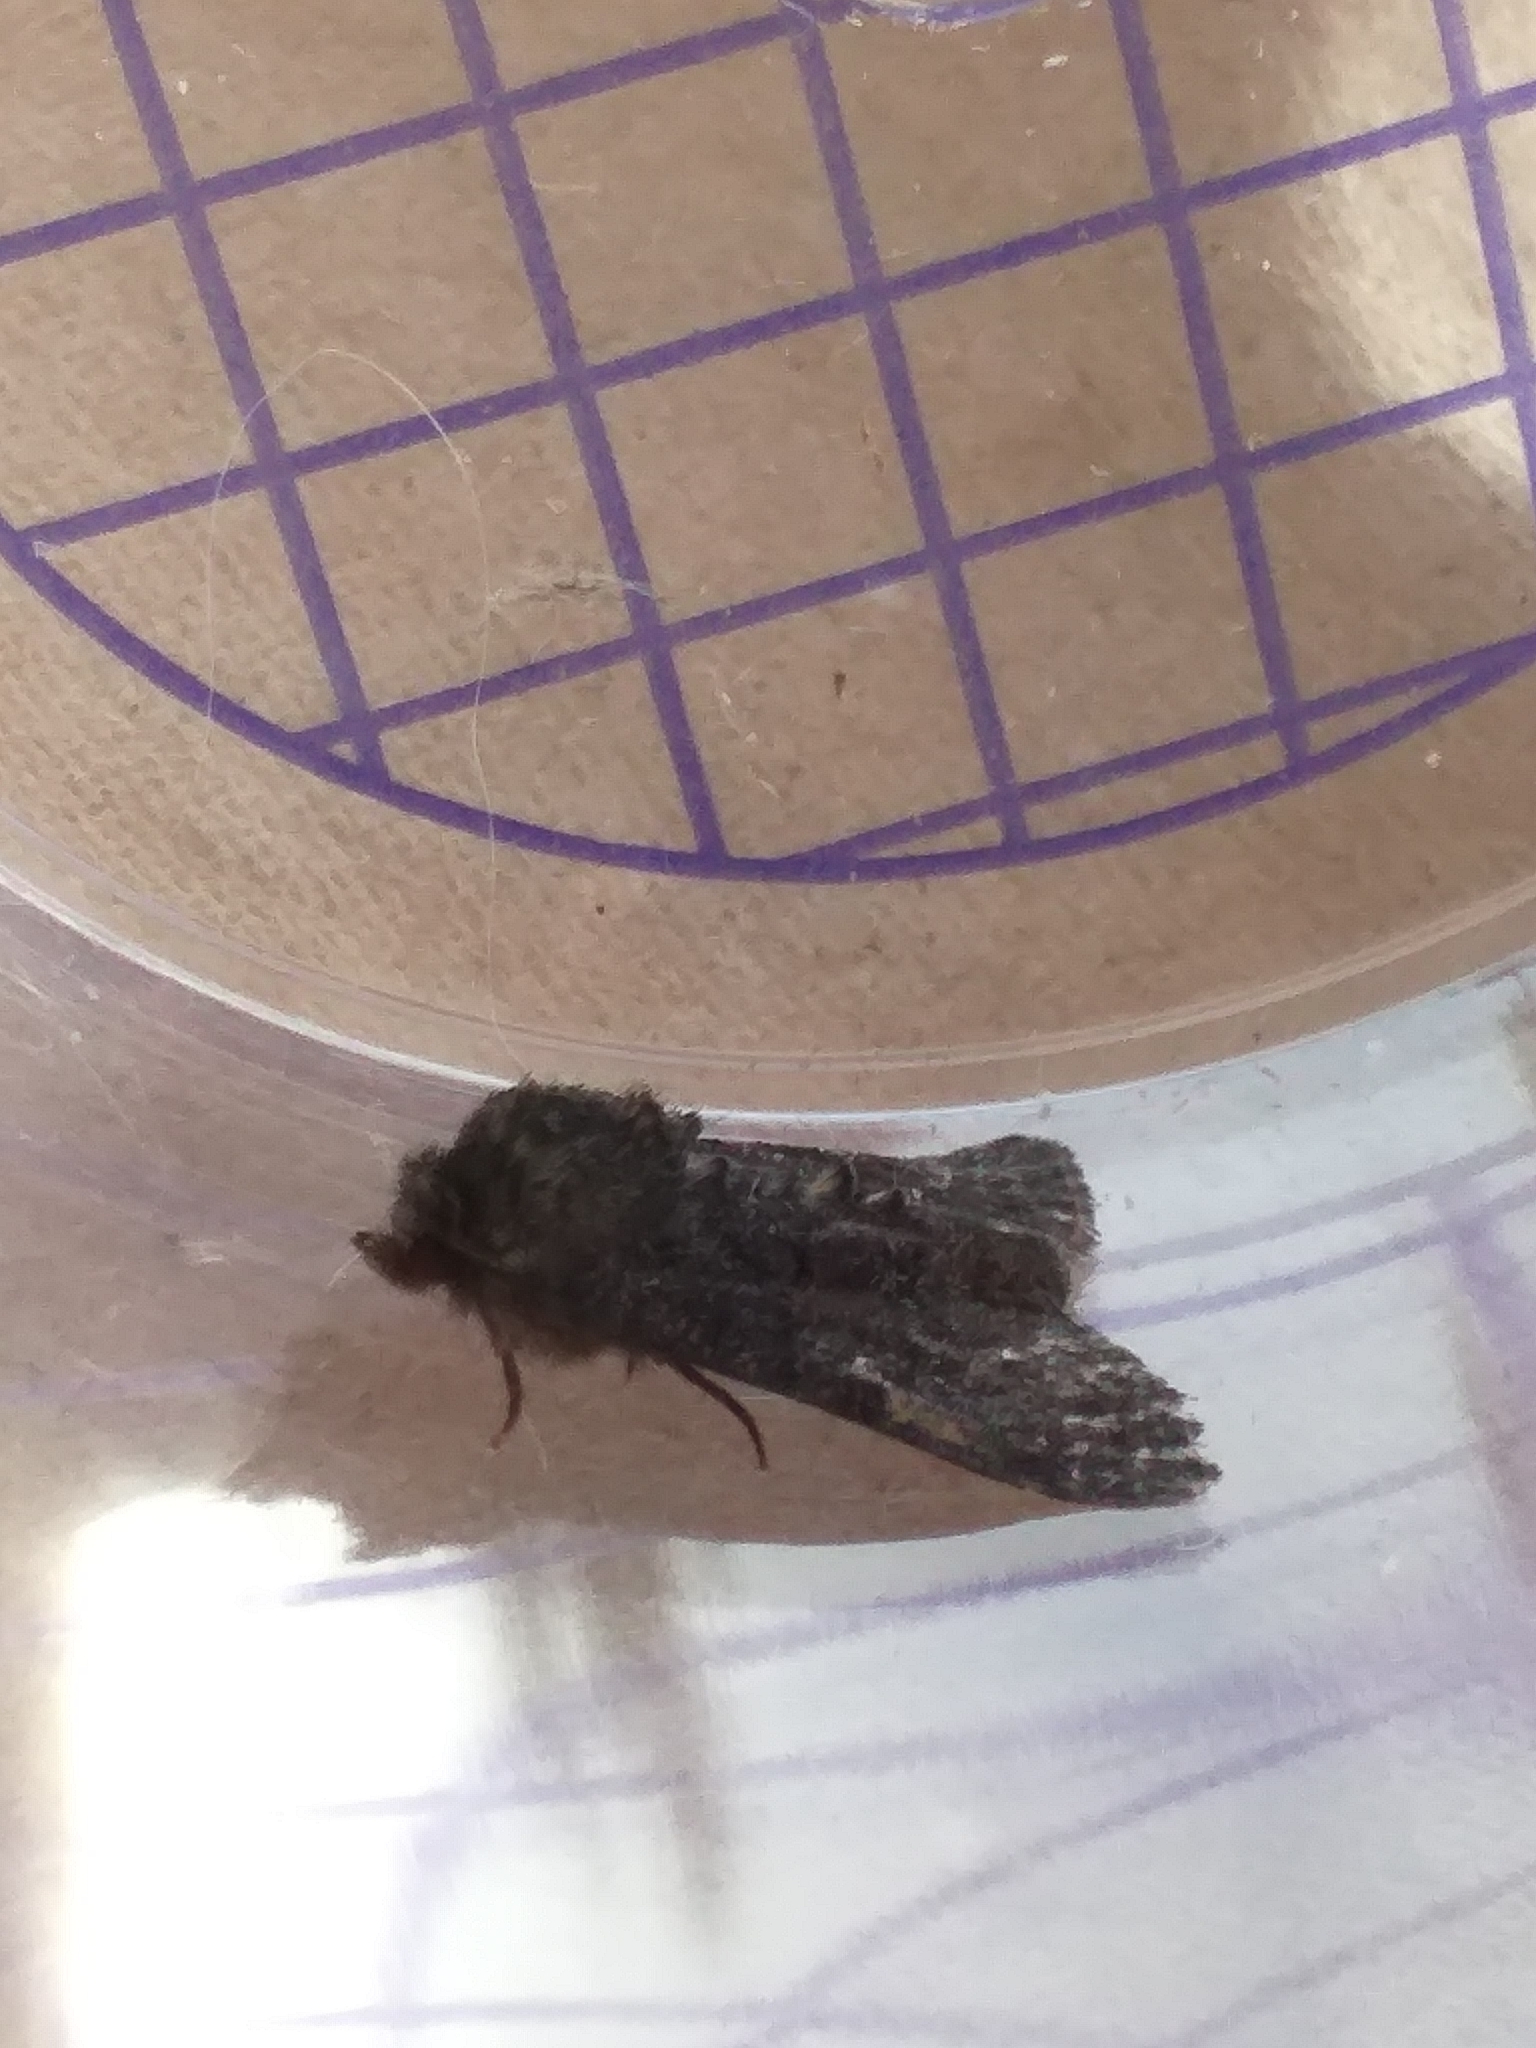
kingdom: Animalia
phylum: Arthropoda
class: Insecta
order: Lepidoptera
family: Noctuidae
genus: Oligia
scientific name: Oligia latruncula
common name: Tawny marbled minor
